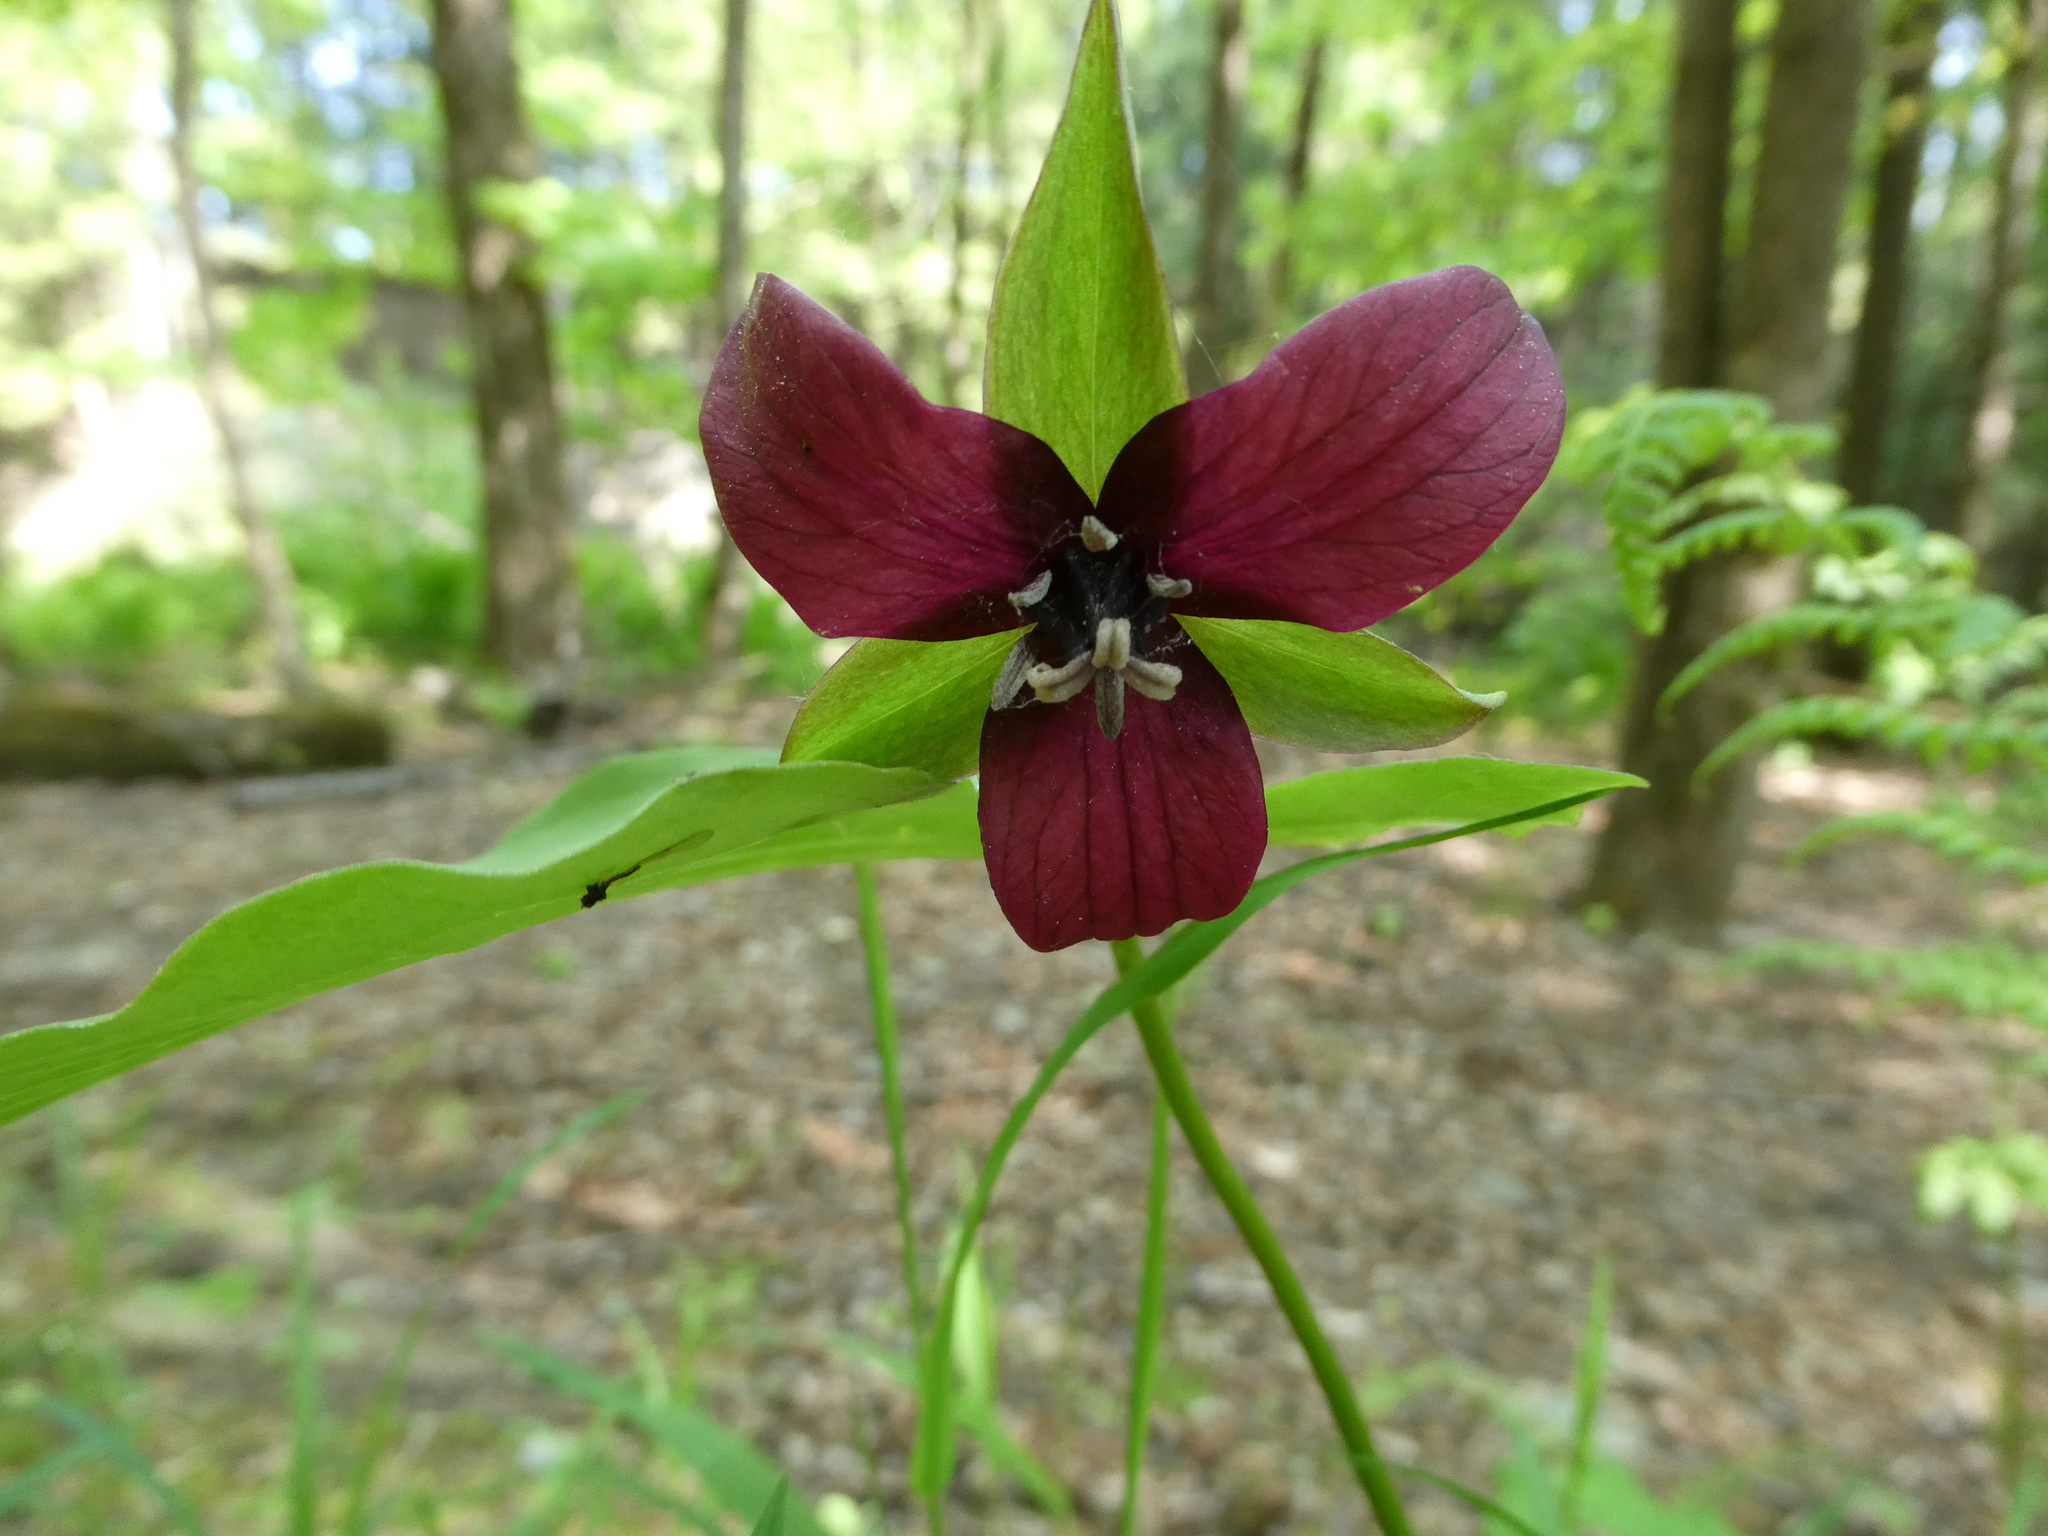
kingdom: Plantae
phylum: Tracheophyta
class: Liliopsida
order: Liliales
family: Melanthiaceae
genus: Trillium
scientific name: Trillium erectum
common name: Purple trillium
